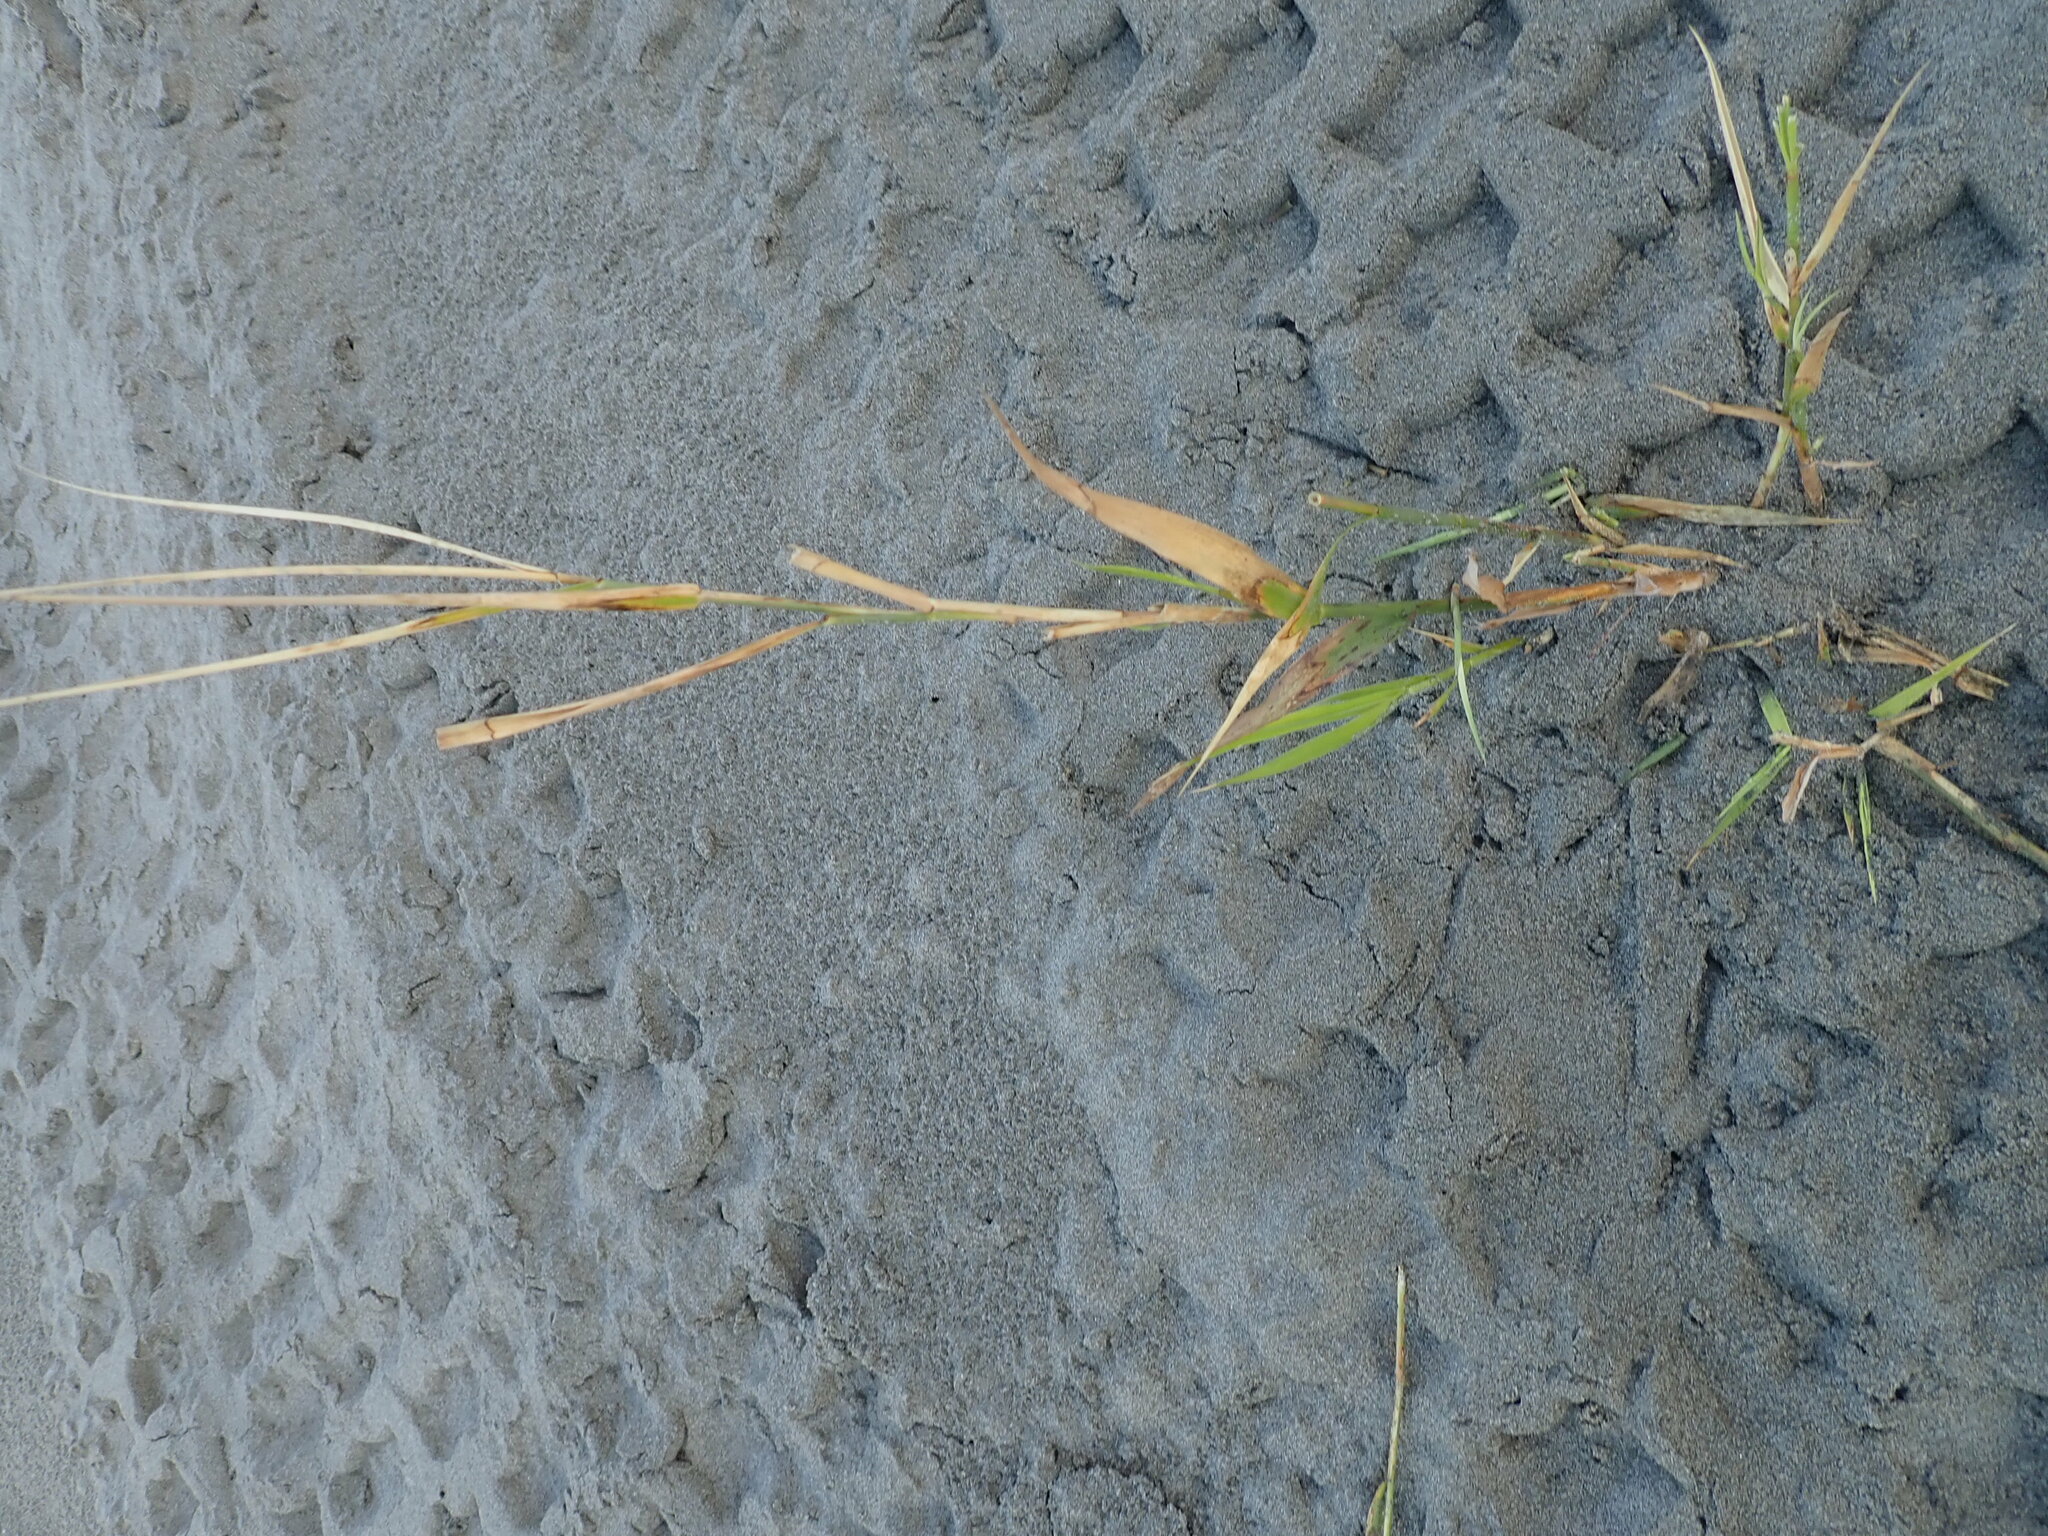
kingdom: Plantae
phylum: Tracheophyta
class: Liliopsida
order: Poales
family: Poaceae
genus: Phragmites
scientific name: Phragmites karka
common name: Tropical reed
